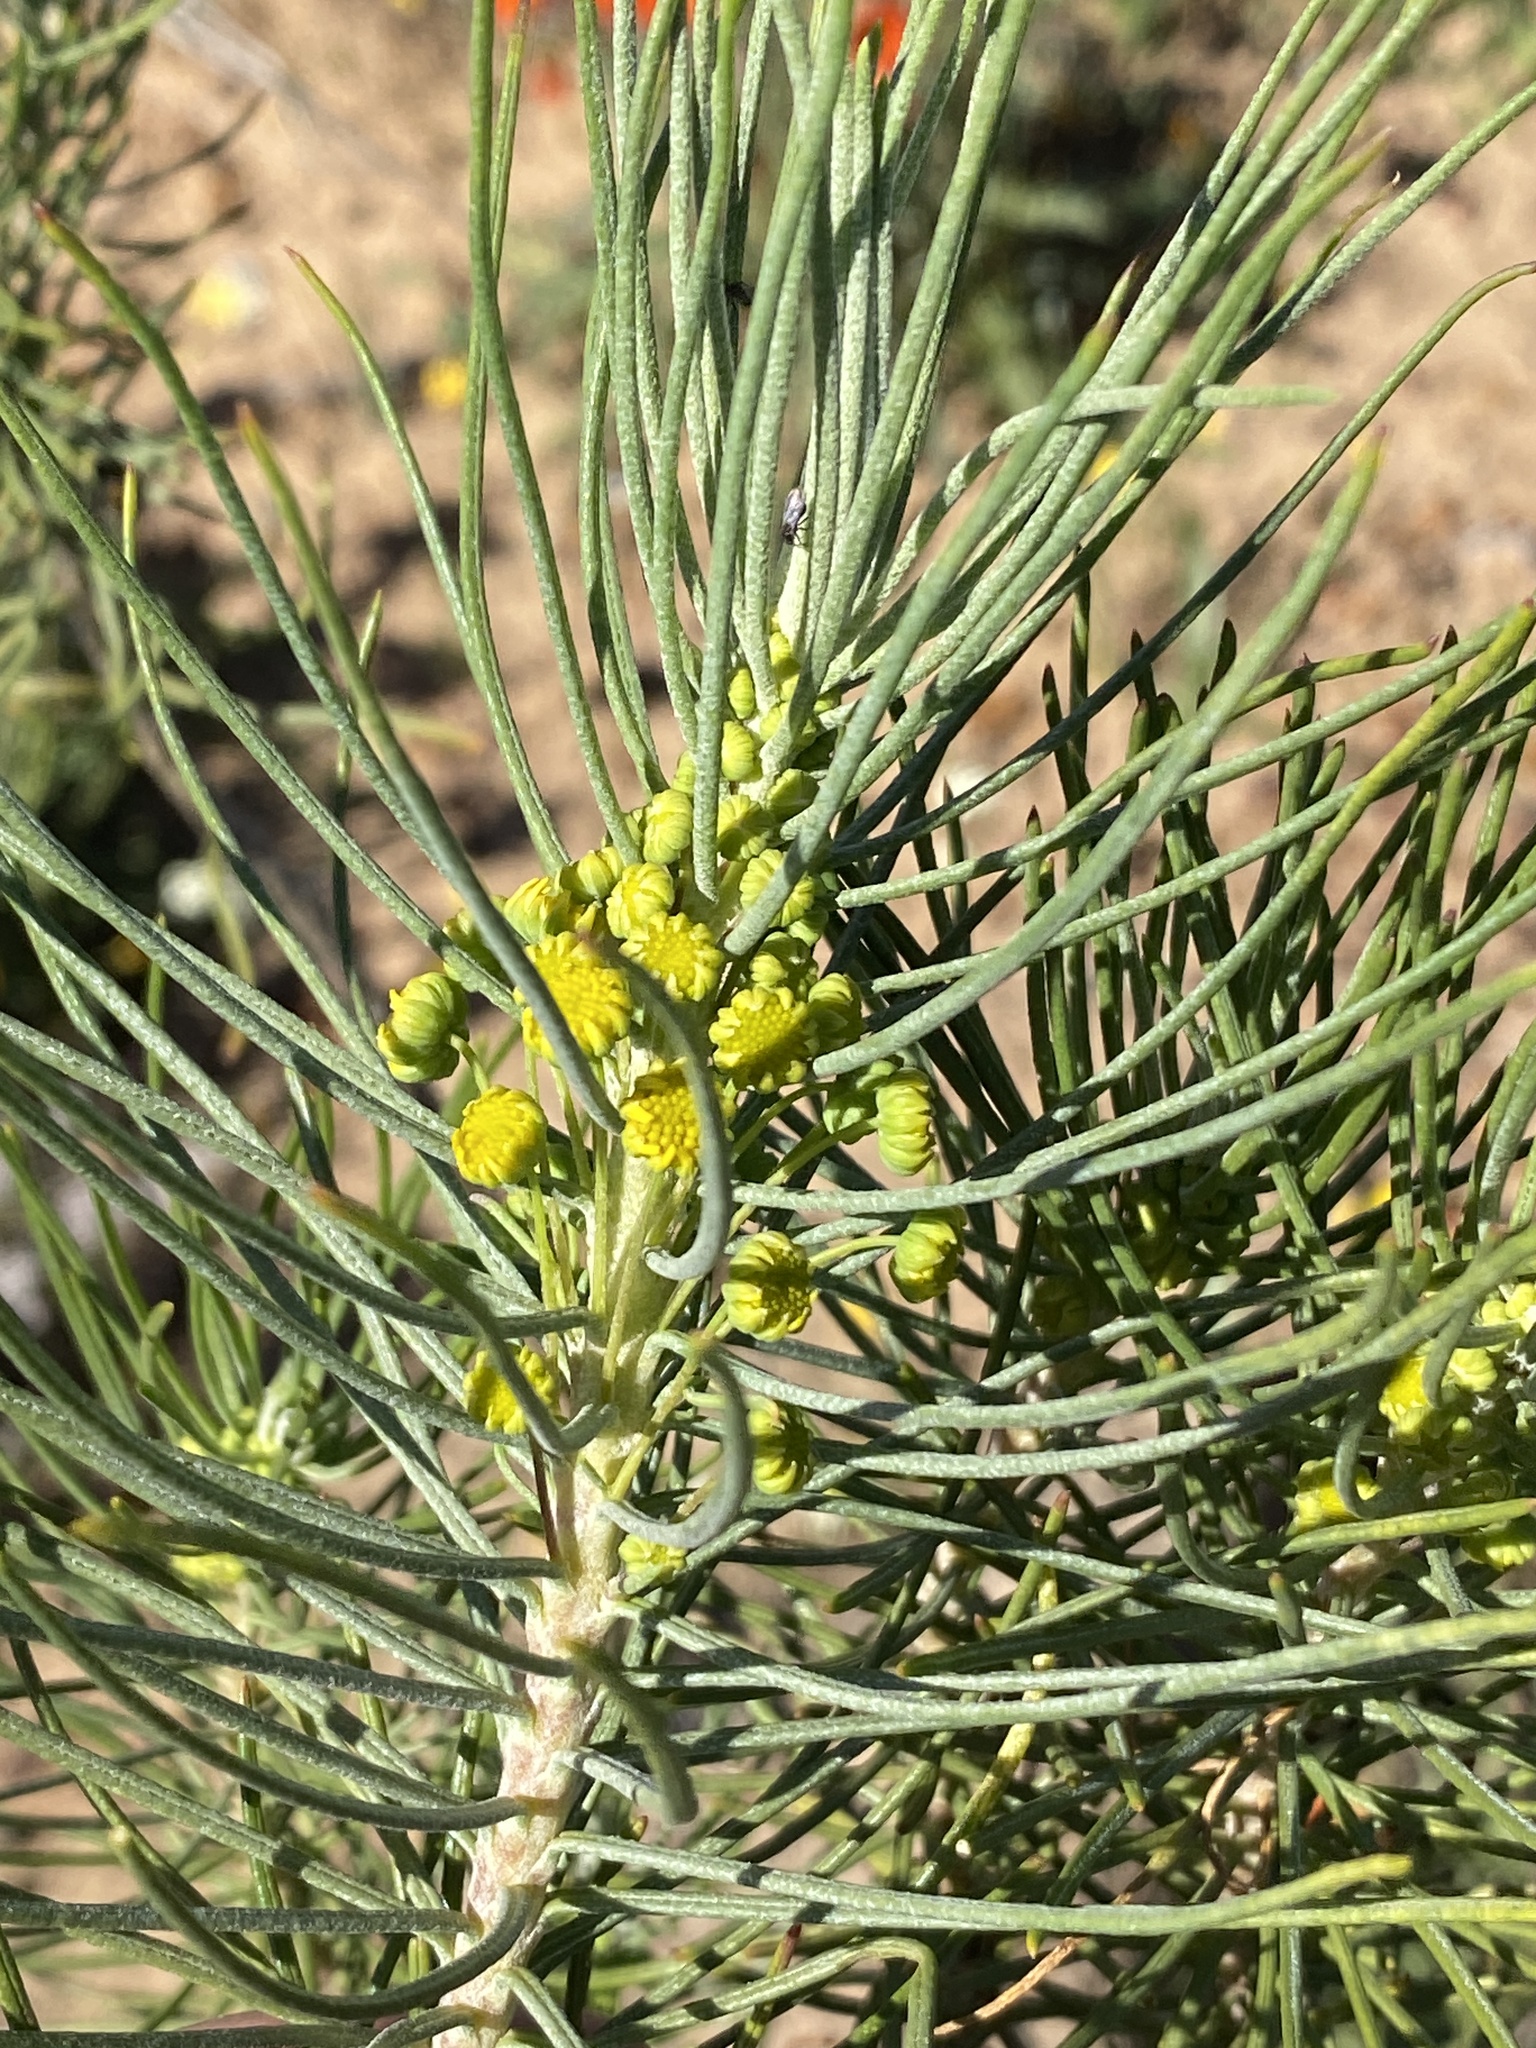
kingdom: Plantae
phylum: Tracheophyta
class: Magnoliopsida
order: Asterales
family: Asteraceae
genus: Euryops
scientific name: Euryops tenuissimus
